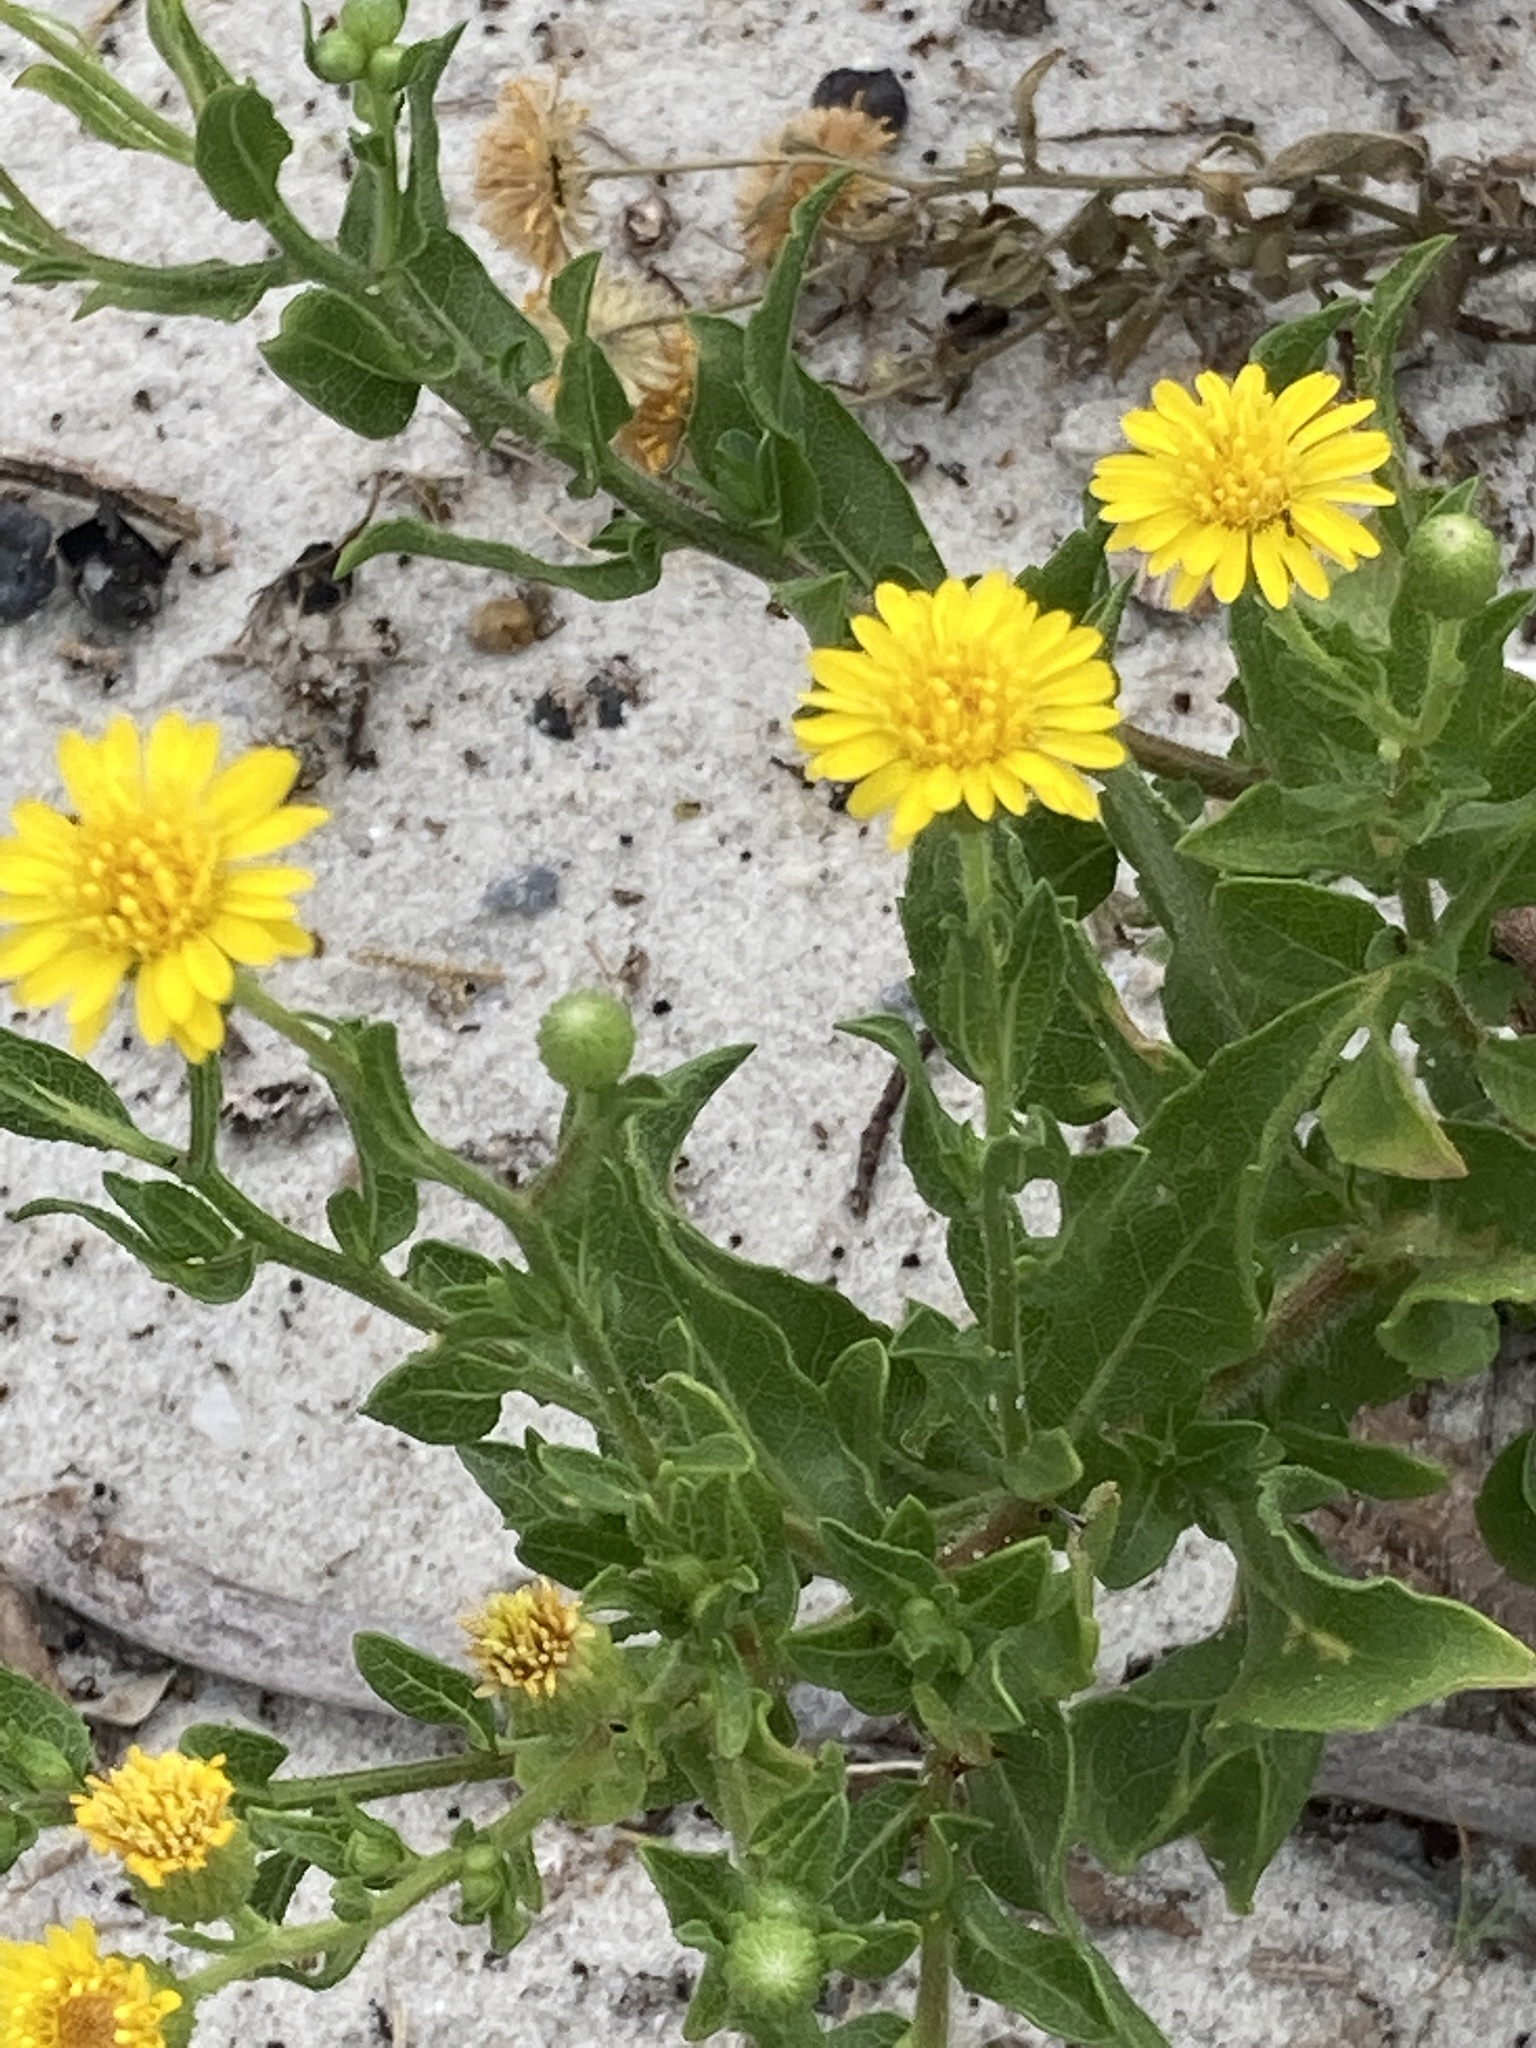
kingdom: Plantae
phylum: Tracheophyta
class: Magnoliopsida
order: Asterales
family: Asteraceae
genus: Heterotheca
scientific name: Heterotheca subaxillaris
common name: Camphorweed
